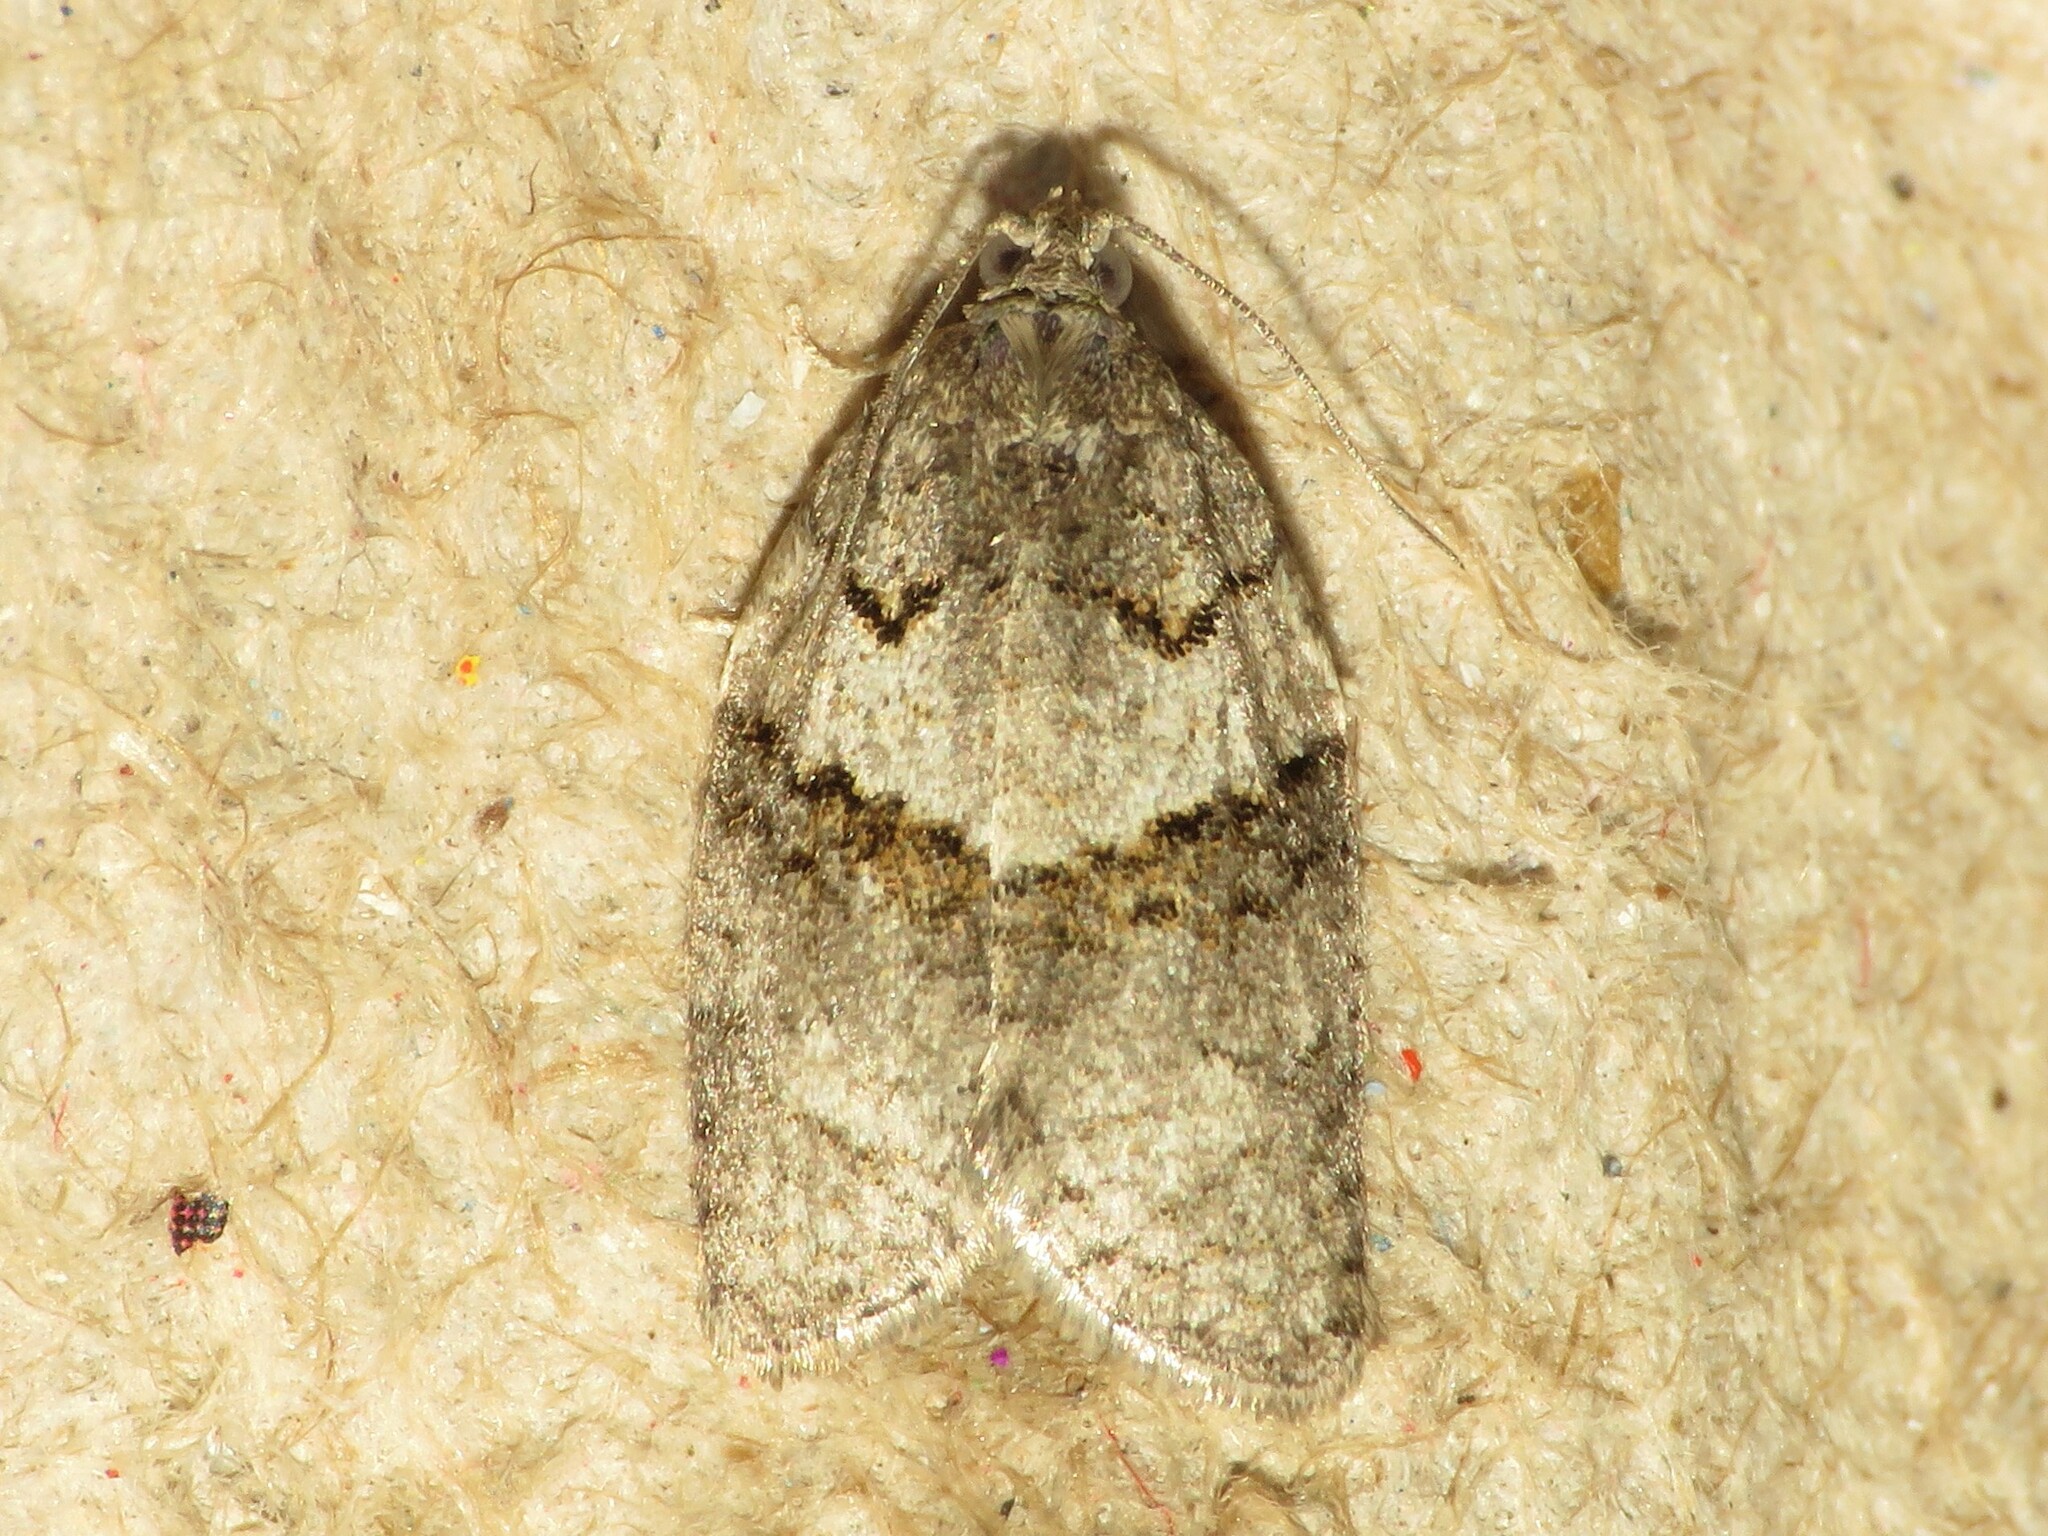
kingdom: Animalia
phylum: Arthropoda
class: Insecta
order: Lepidoptera
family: Tortricidae
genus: Syndemis
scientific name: Syndemis afflictana
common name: Gray leafroller moth
